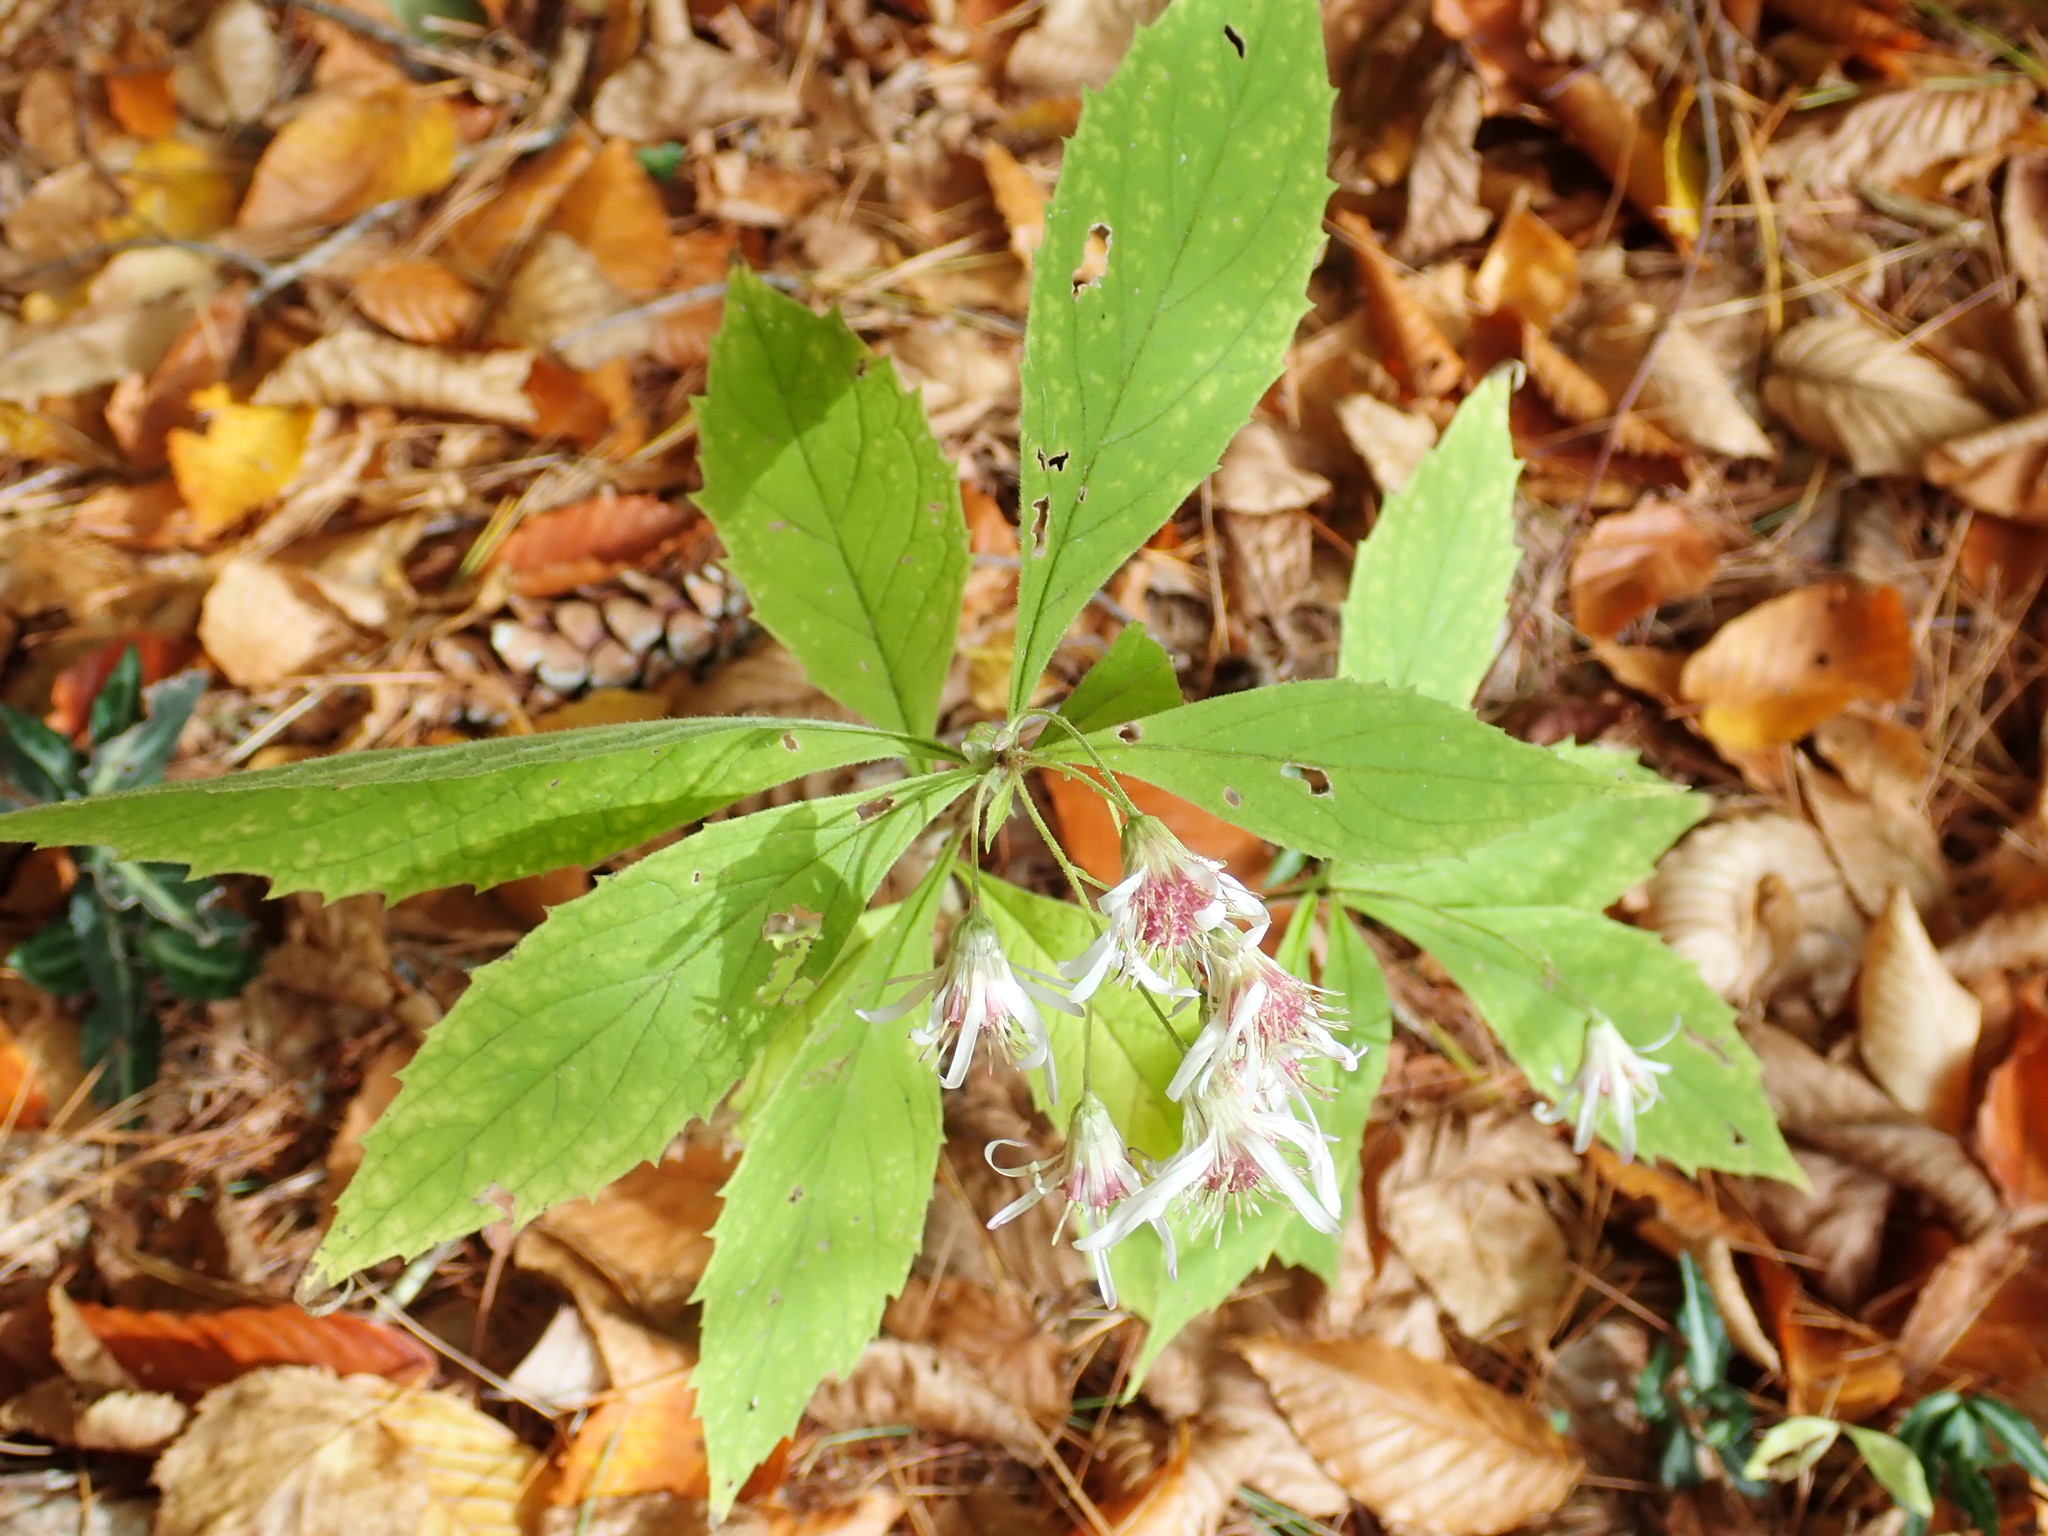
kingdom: Plantae
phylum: Tracheophyta
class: Magnoliopsida
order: Asterales
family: Asteraceae
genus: Oclemena
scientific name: Oclemena acuminata
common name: Mountain aster
